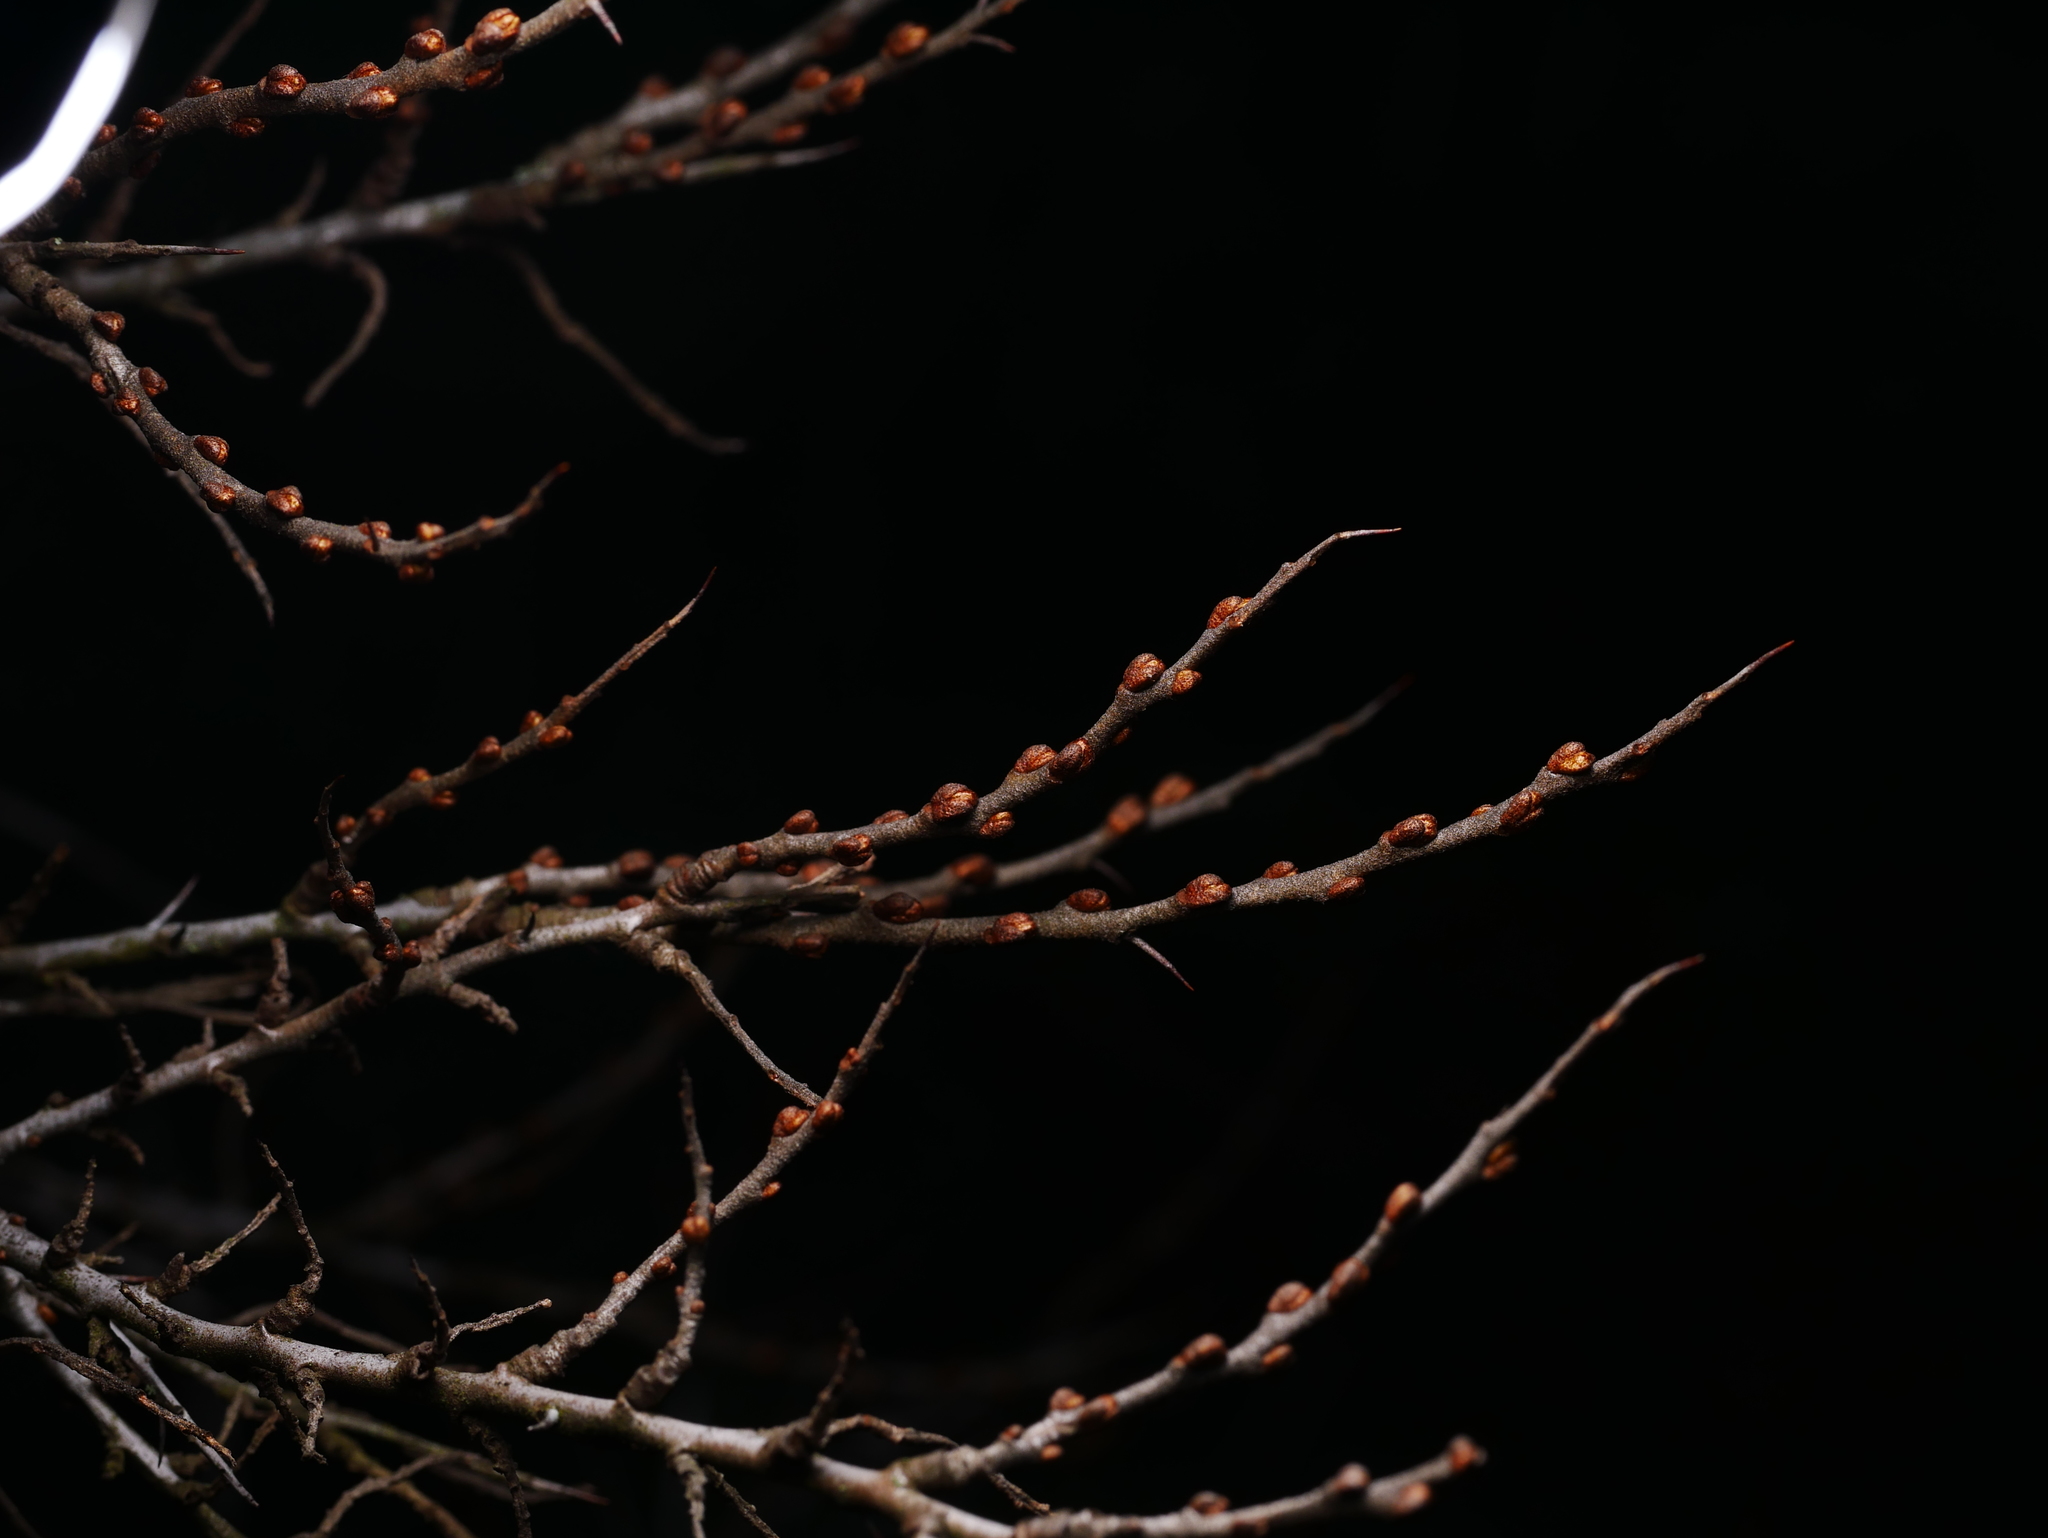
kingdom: Plantae
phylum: Tracheophyta
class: Magnoliopsida
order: Rosales
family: Elaeagnaceae
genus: Hippophae
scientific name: Hippophae rhamnoides
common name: Sea-buckthorn
